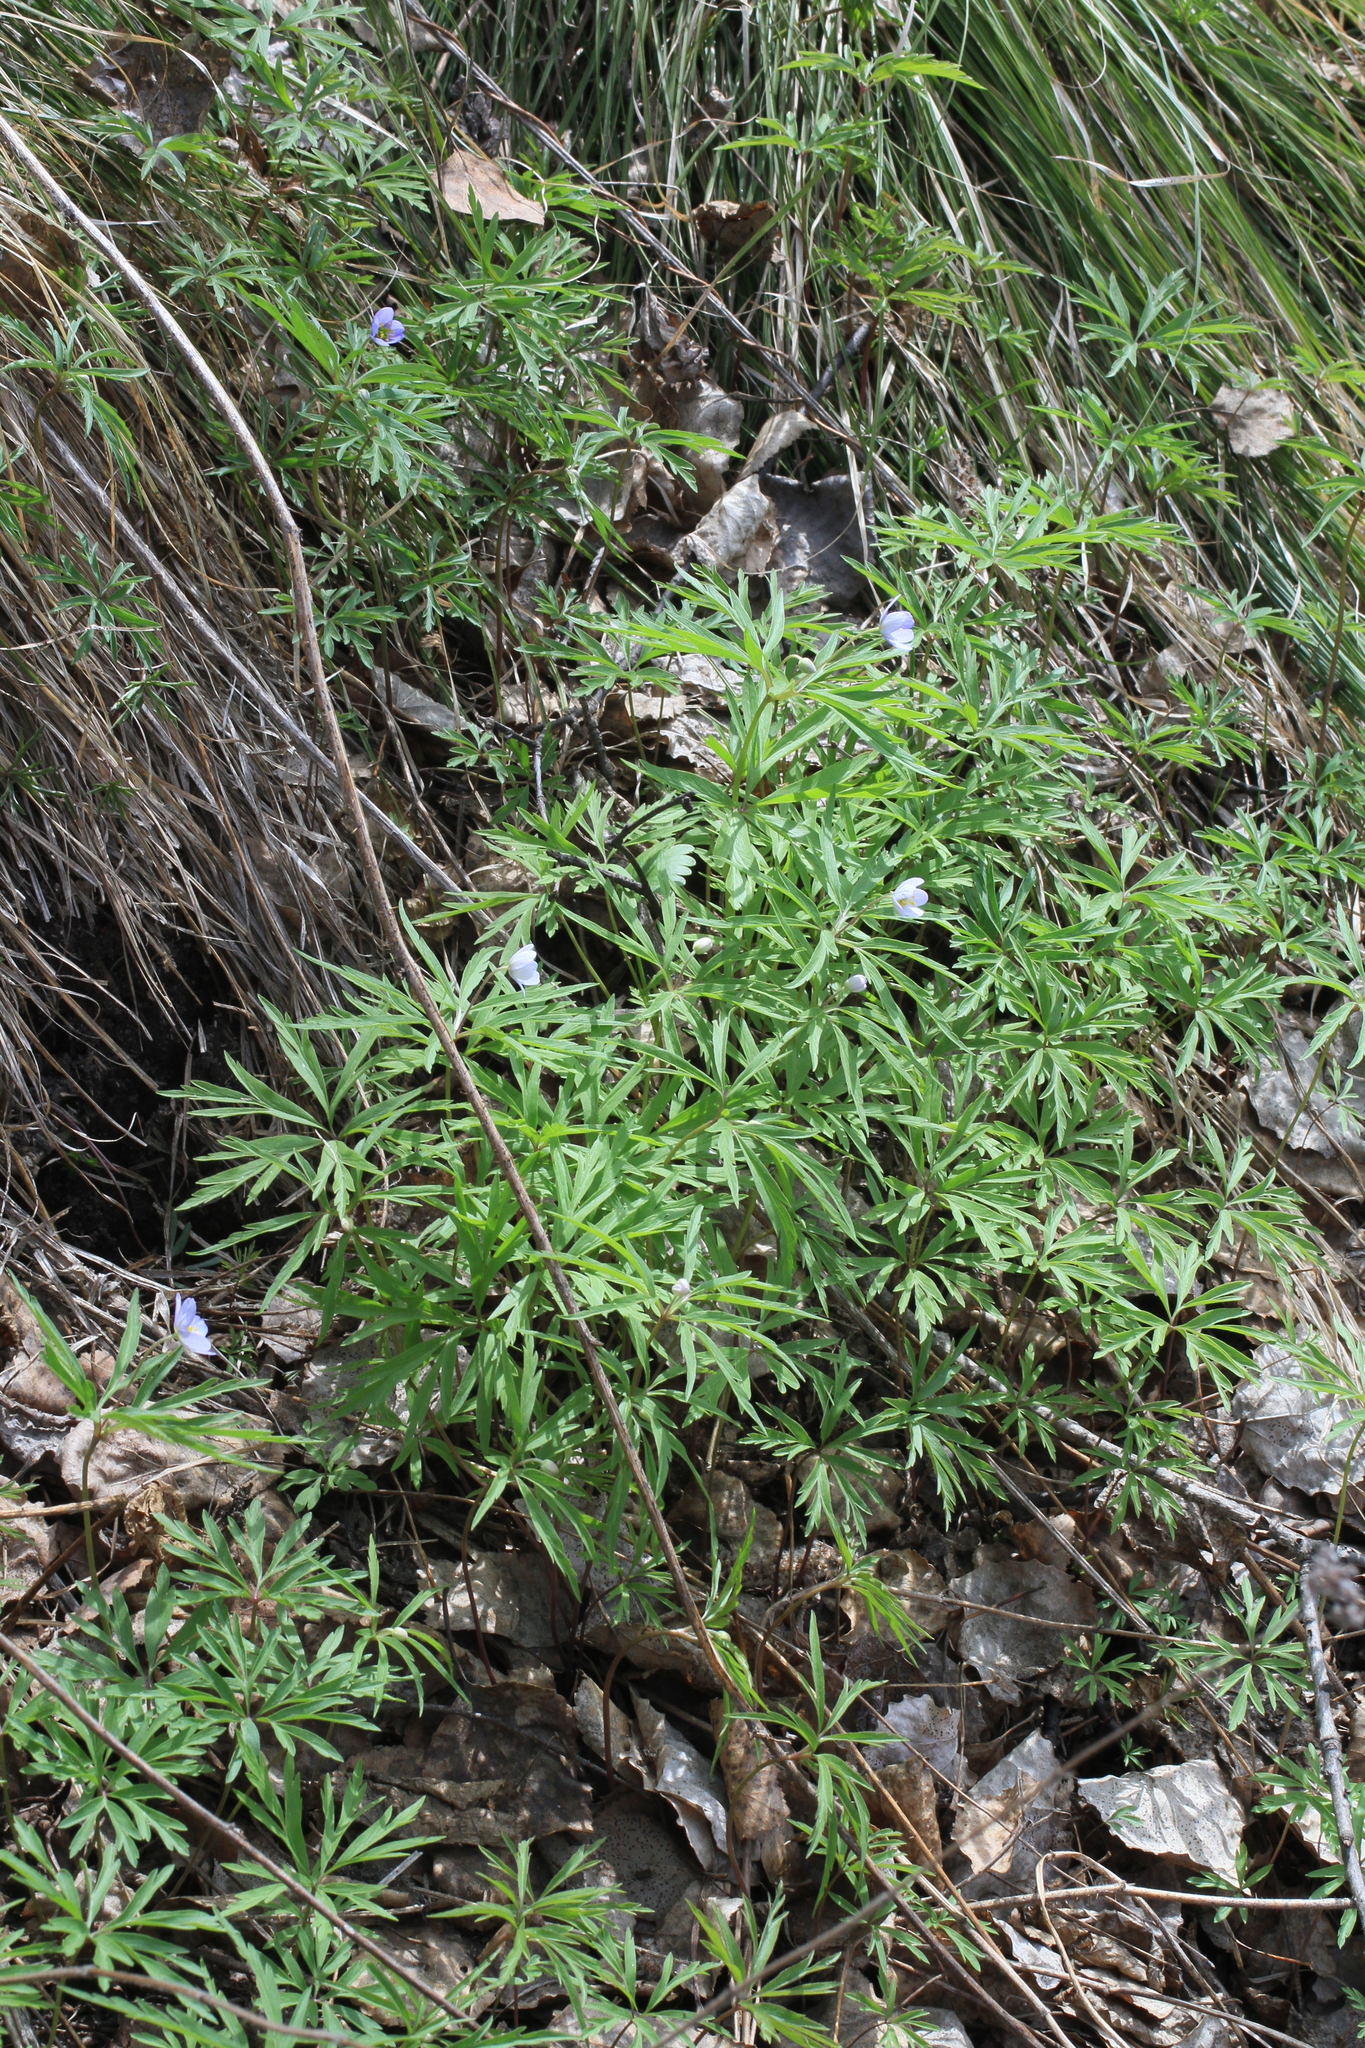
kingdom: Plantae
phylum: Tracheophyta
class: Magnoliopsida
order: Ranunculales
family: Ranunculaceae
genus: Anemone
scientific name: Anemone caerulea
